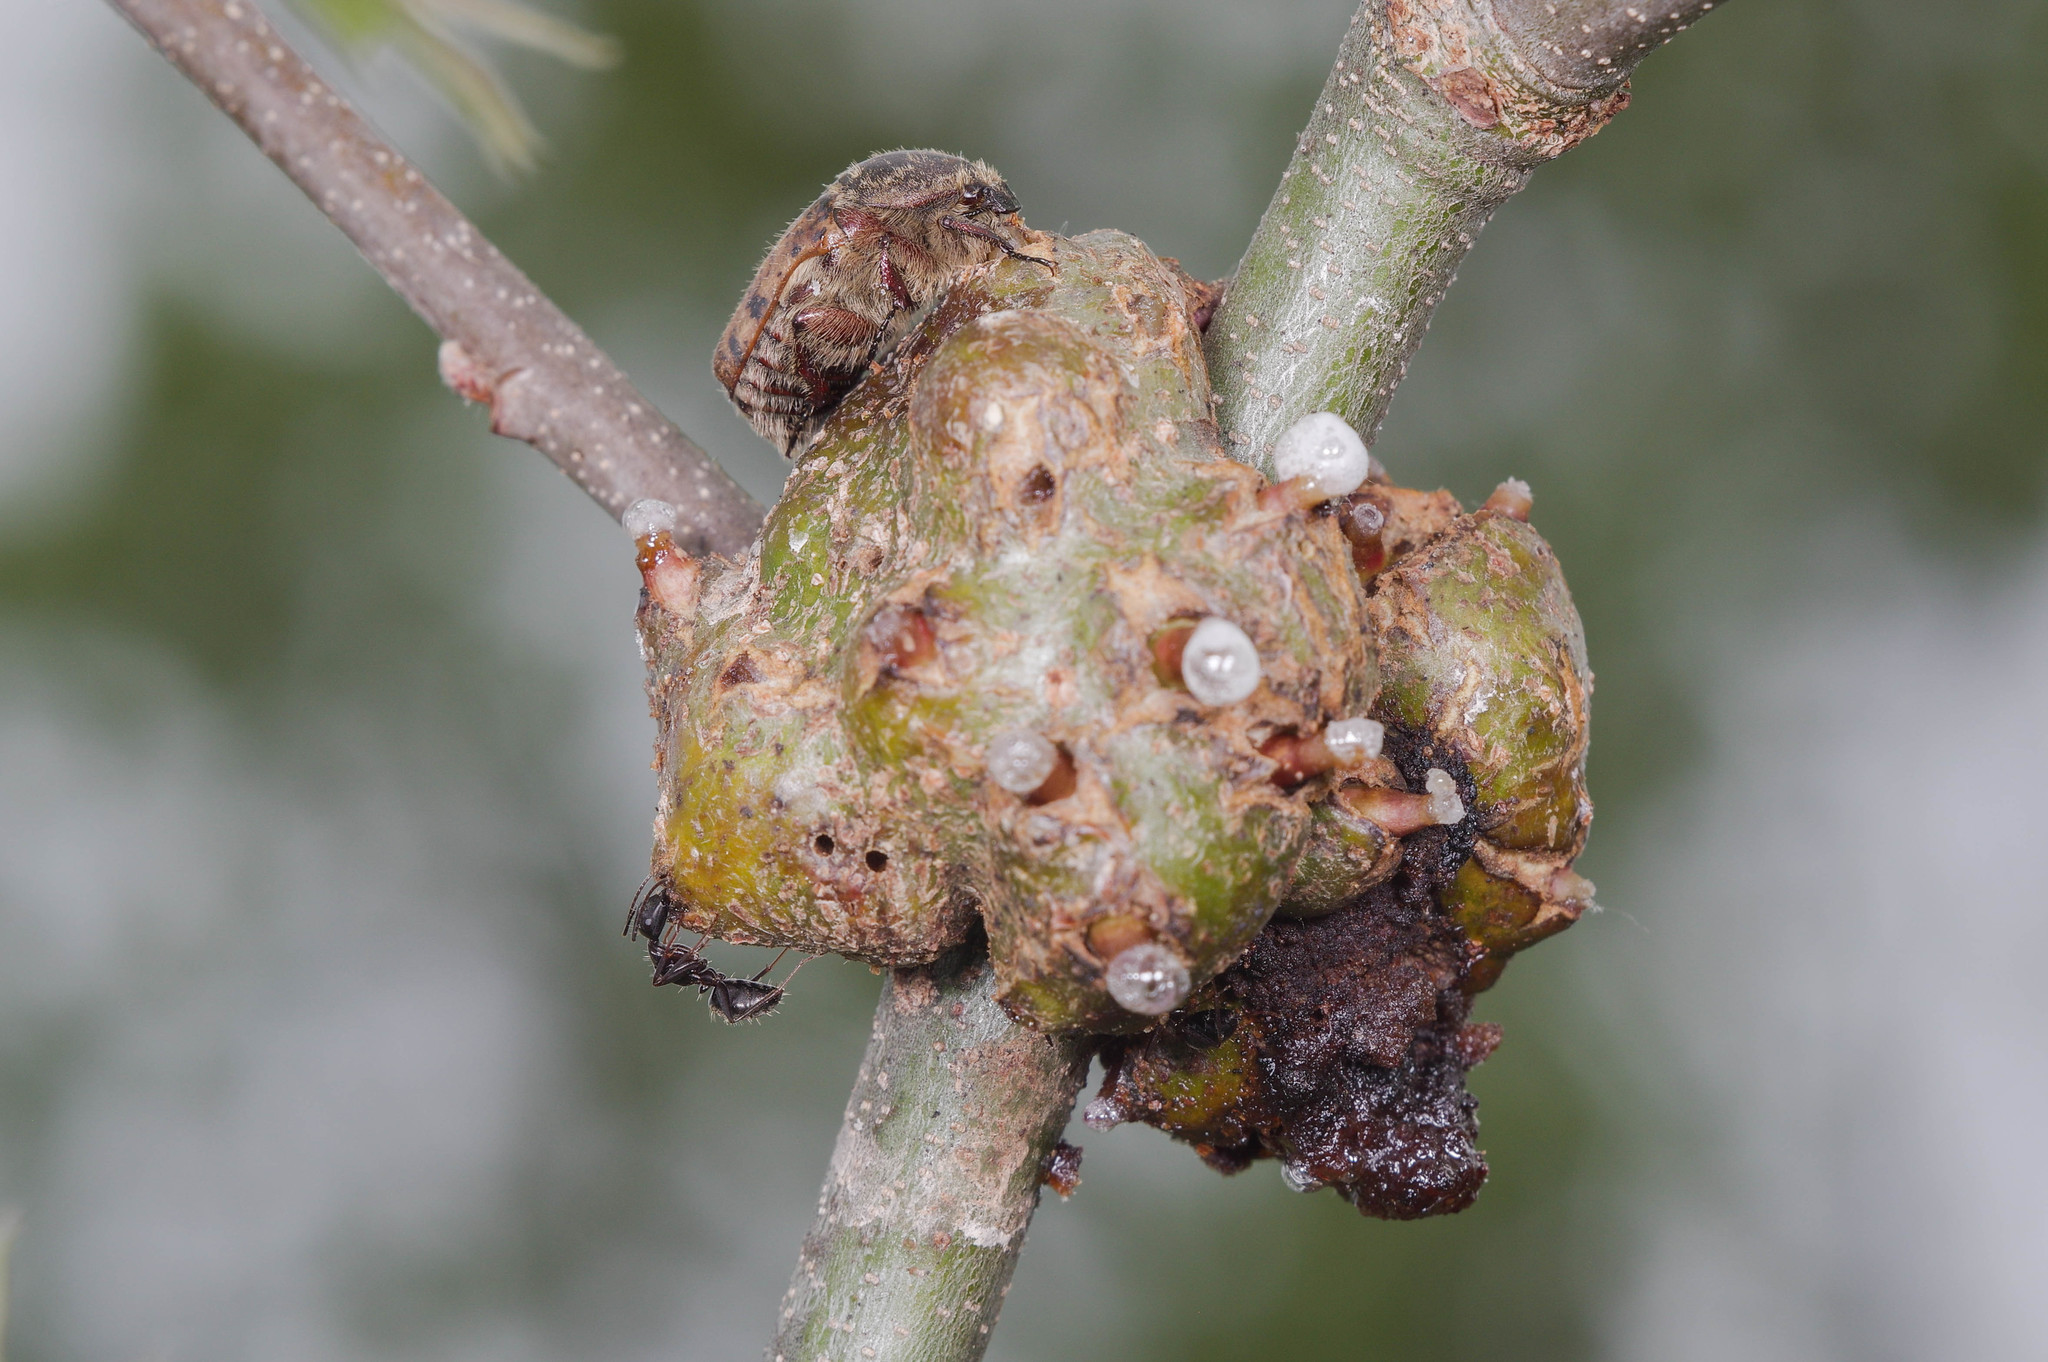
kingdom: Animalia
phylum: Arthropoda
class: Insecta
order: Hymenoptera
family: Cynipidae
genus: Callirhytis
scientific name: Callirhytis
